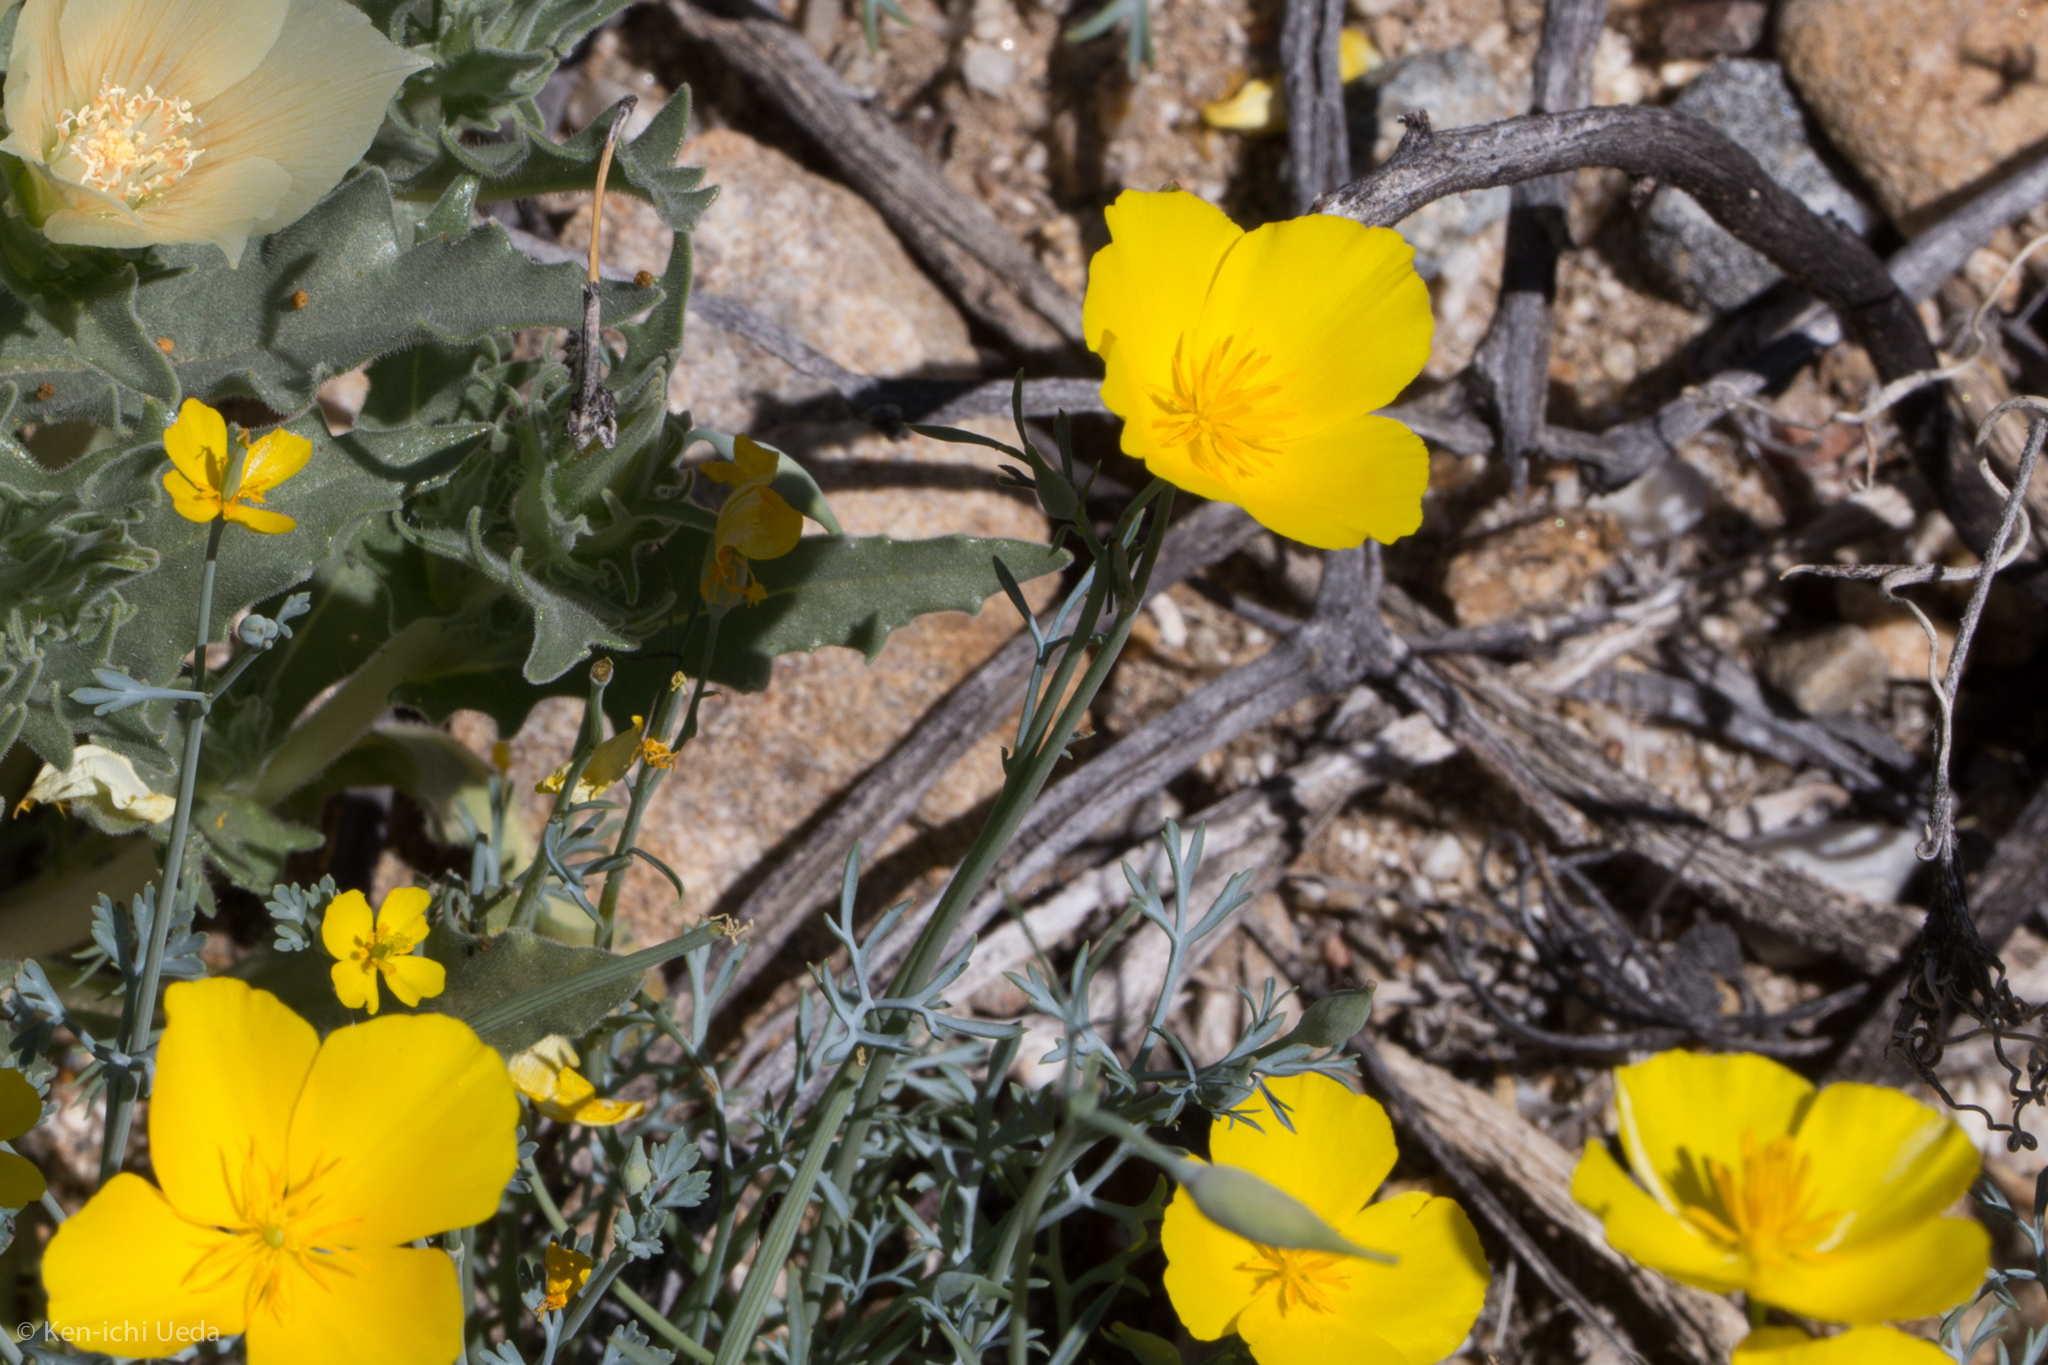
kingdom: Plantae
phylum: Tracheophyta
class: Magnoliopsida
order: Ranunculales
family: Papaveraceae
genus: Eschscholzia
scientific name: Eschscholzia parishii
